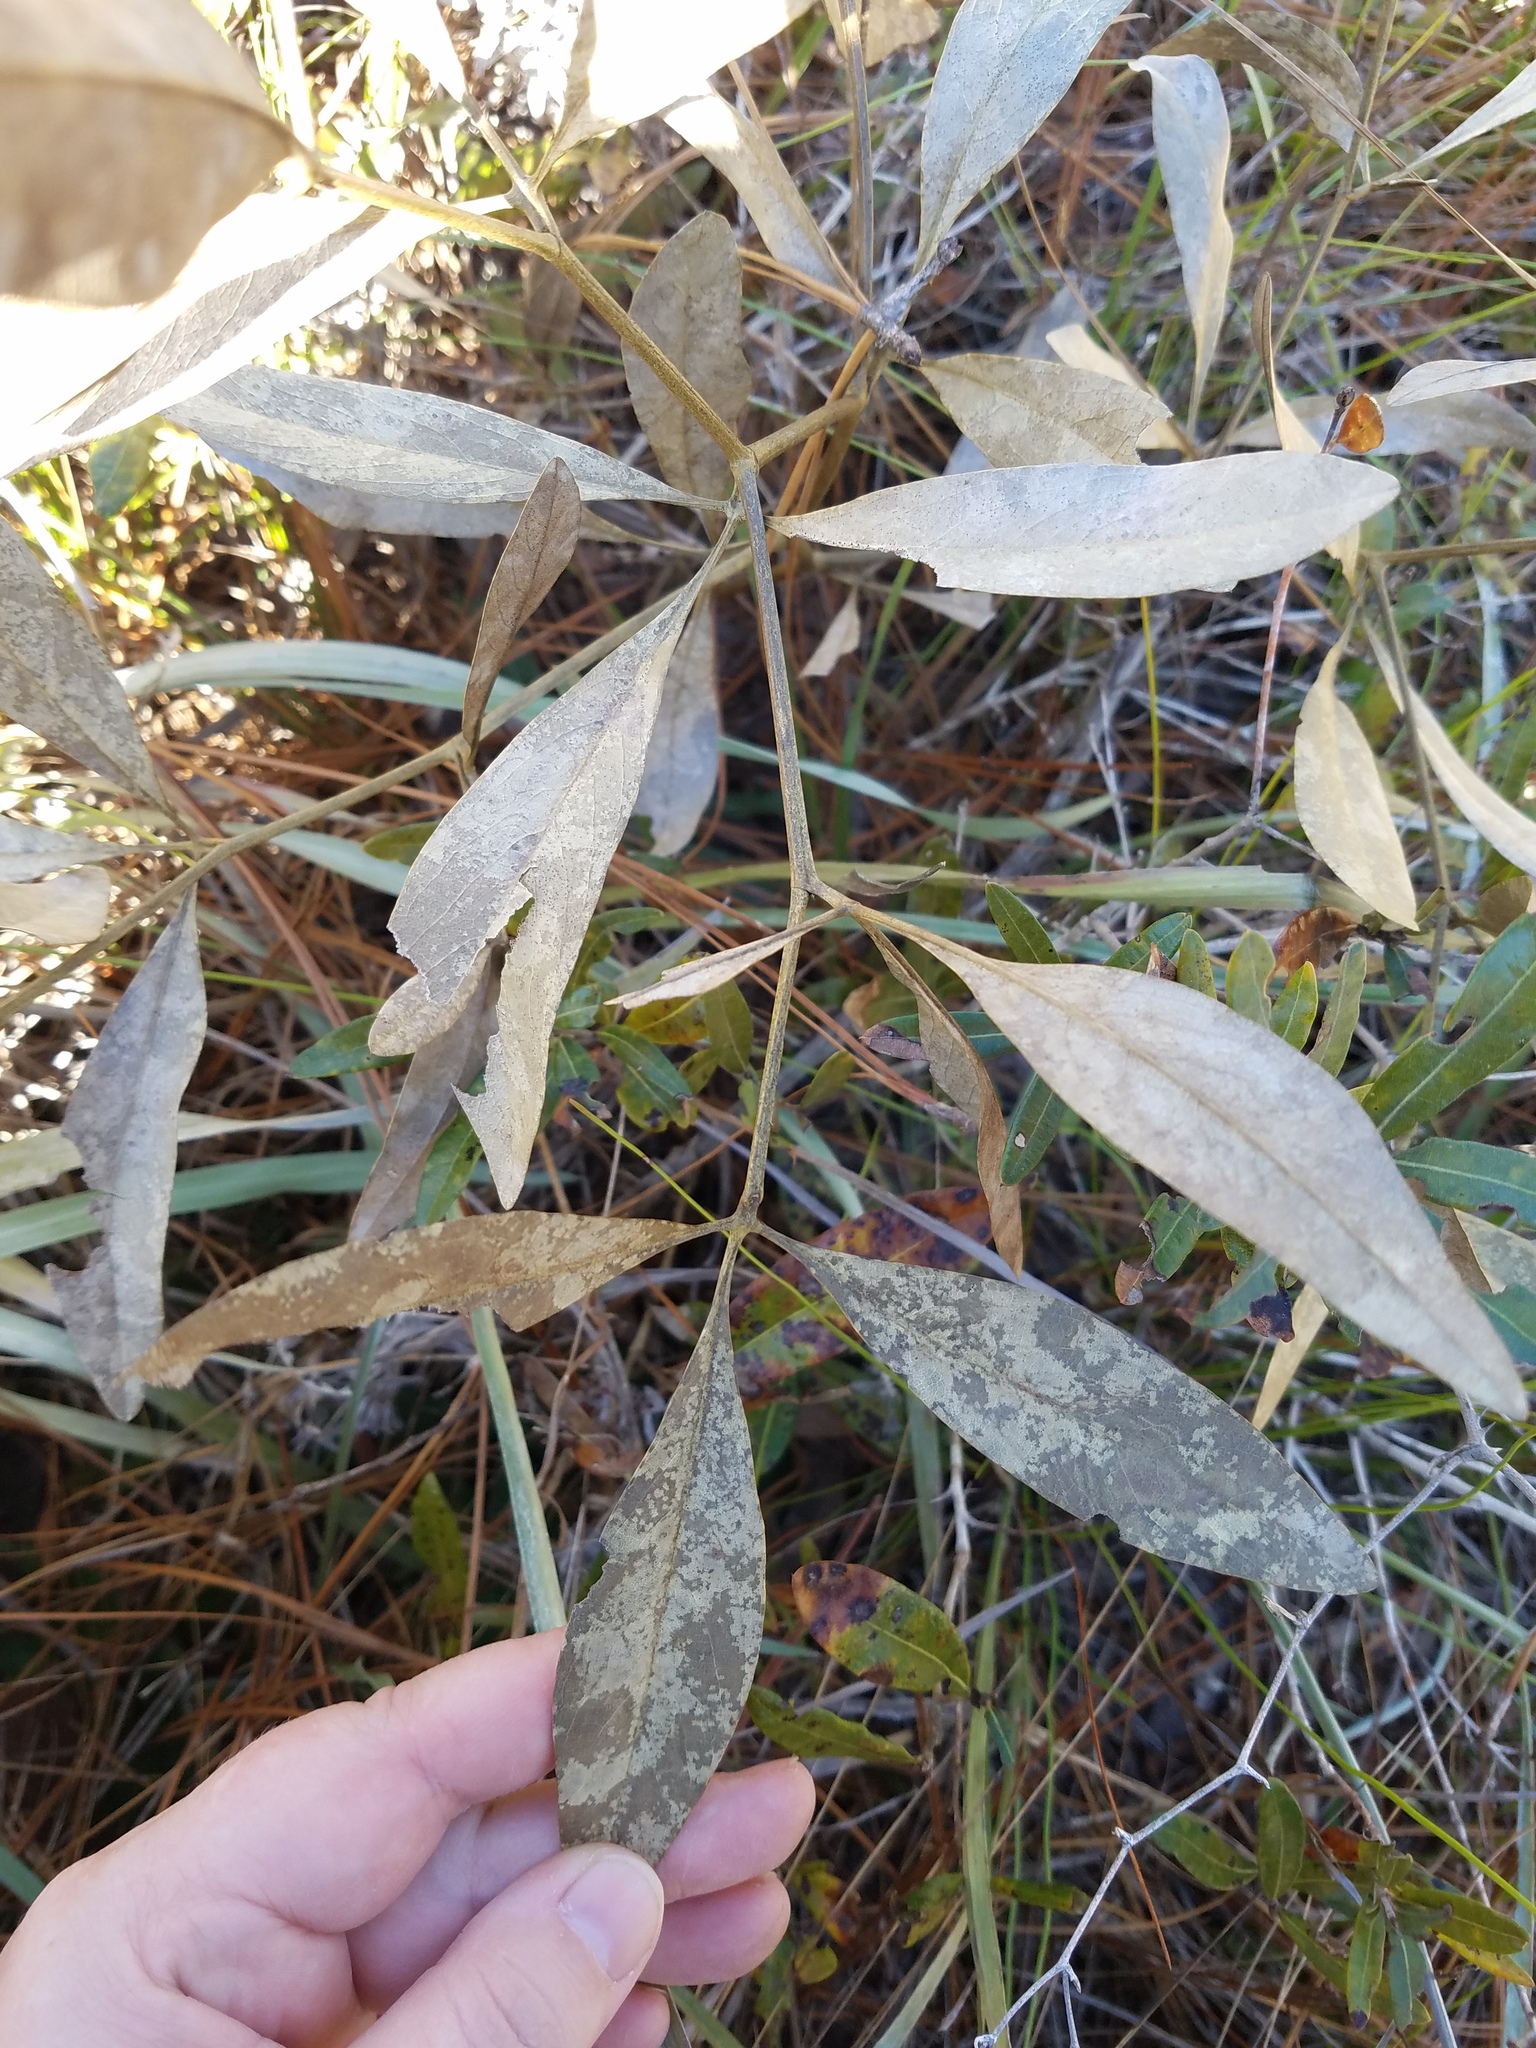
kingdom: Plantae
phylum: Tracheophyta
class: Magnoliopsida
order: Fabales
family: Fabaceae
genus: Baptisia
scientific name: Baptisia lanceolata
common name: Gopherweed
